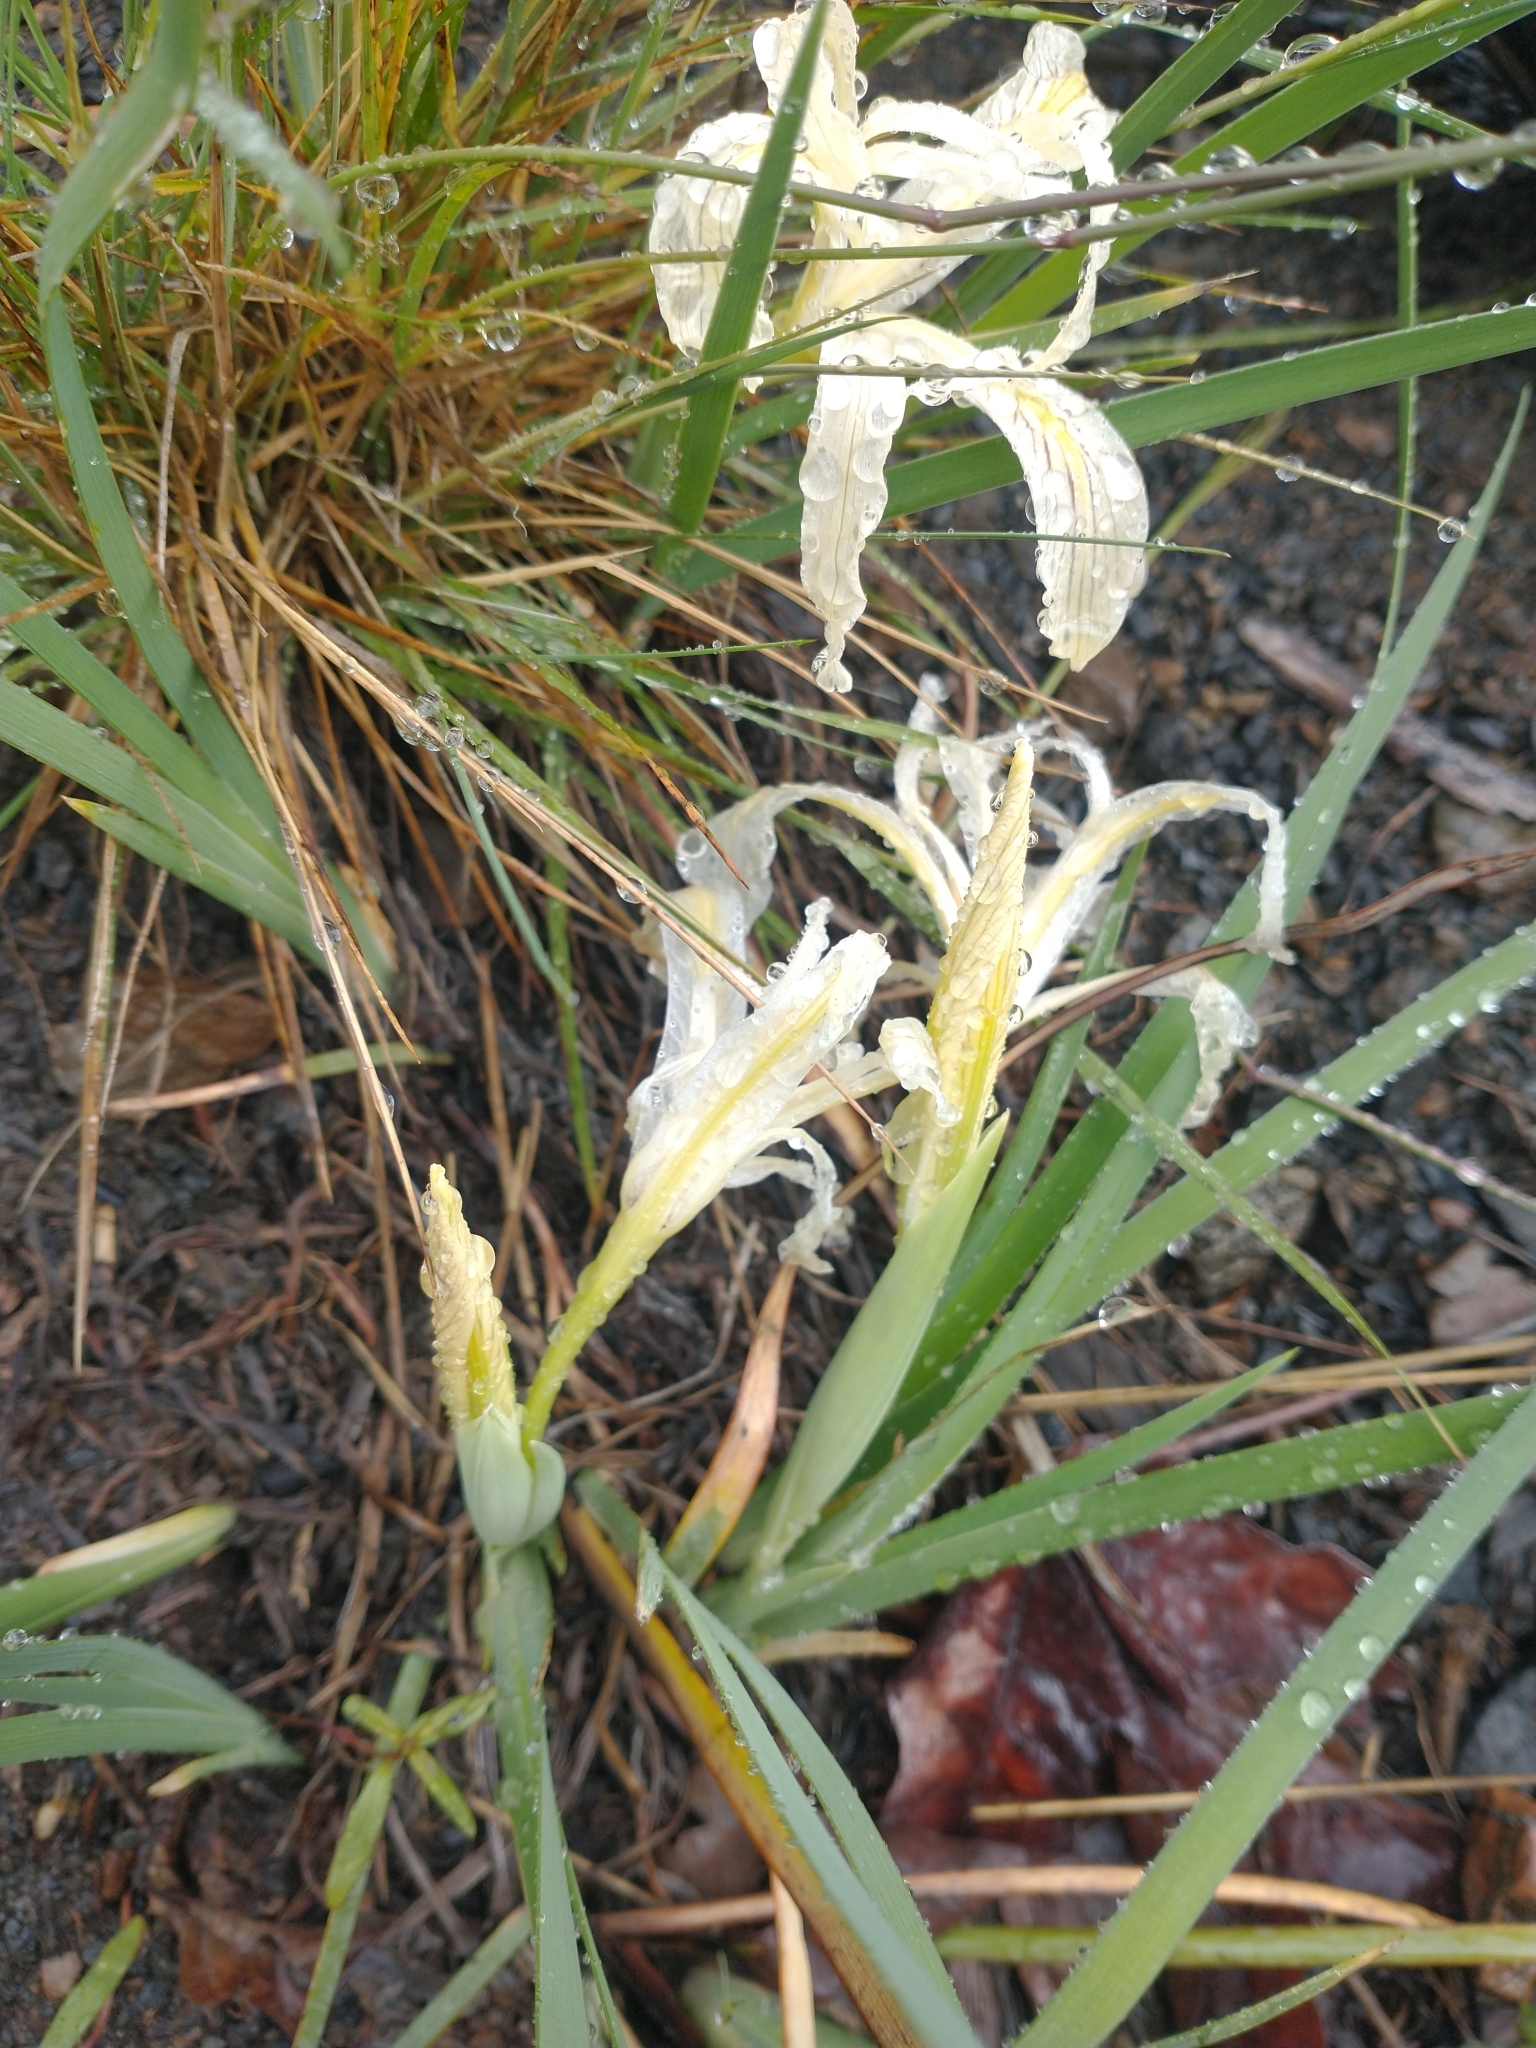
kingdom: Plantae
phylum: Tracheophyta
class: Liliopsida
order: Asparagales
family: Iridaceae
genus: Iris
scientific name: Iris tenuissima
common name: Long-tube iris
